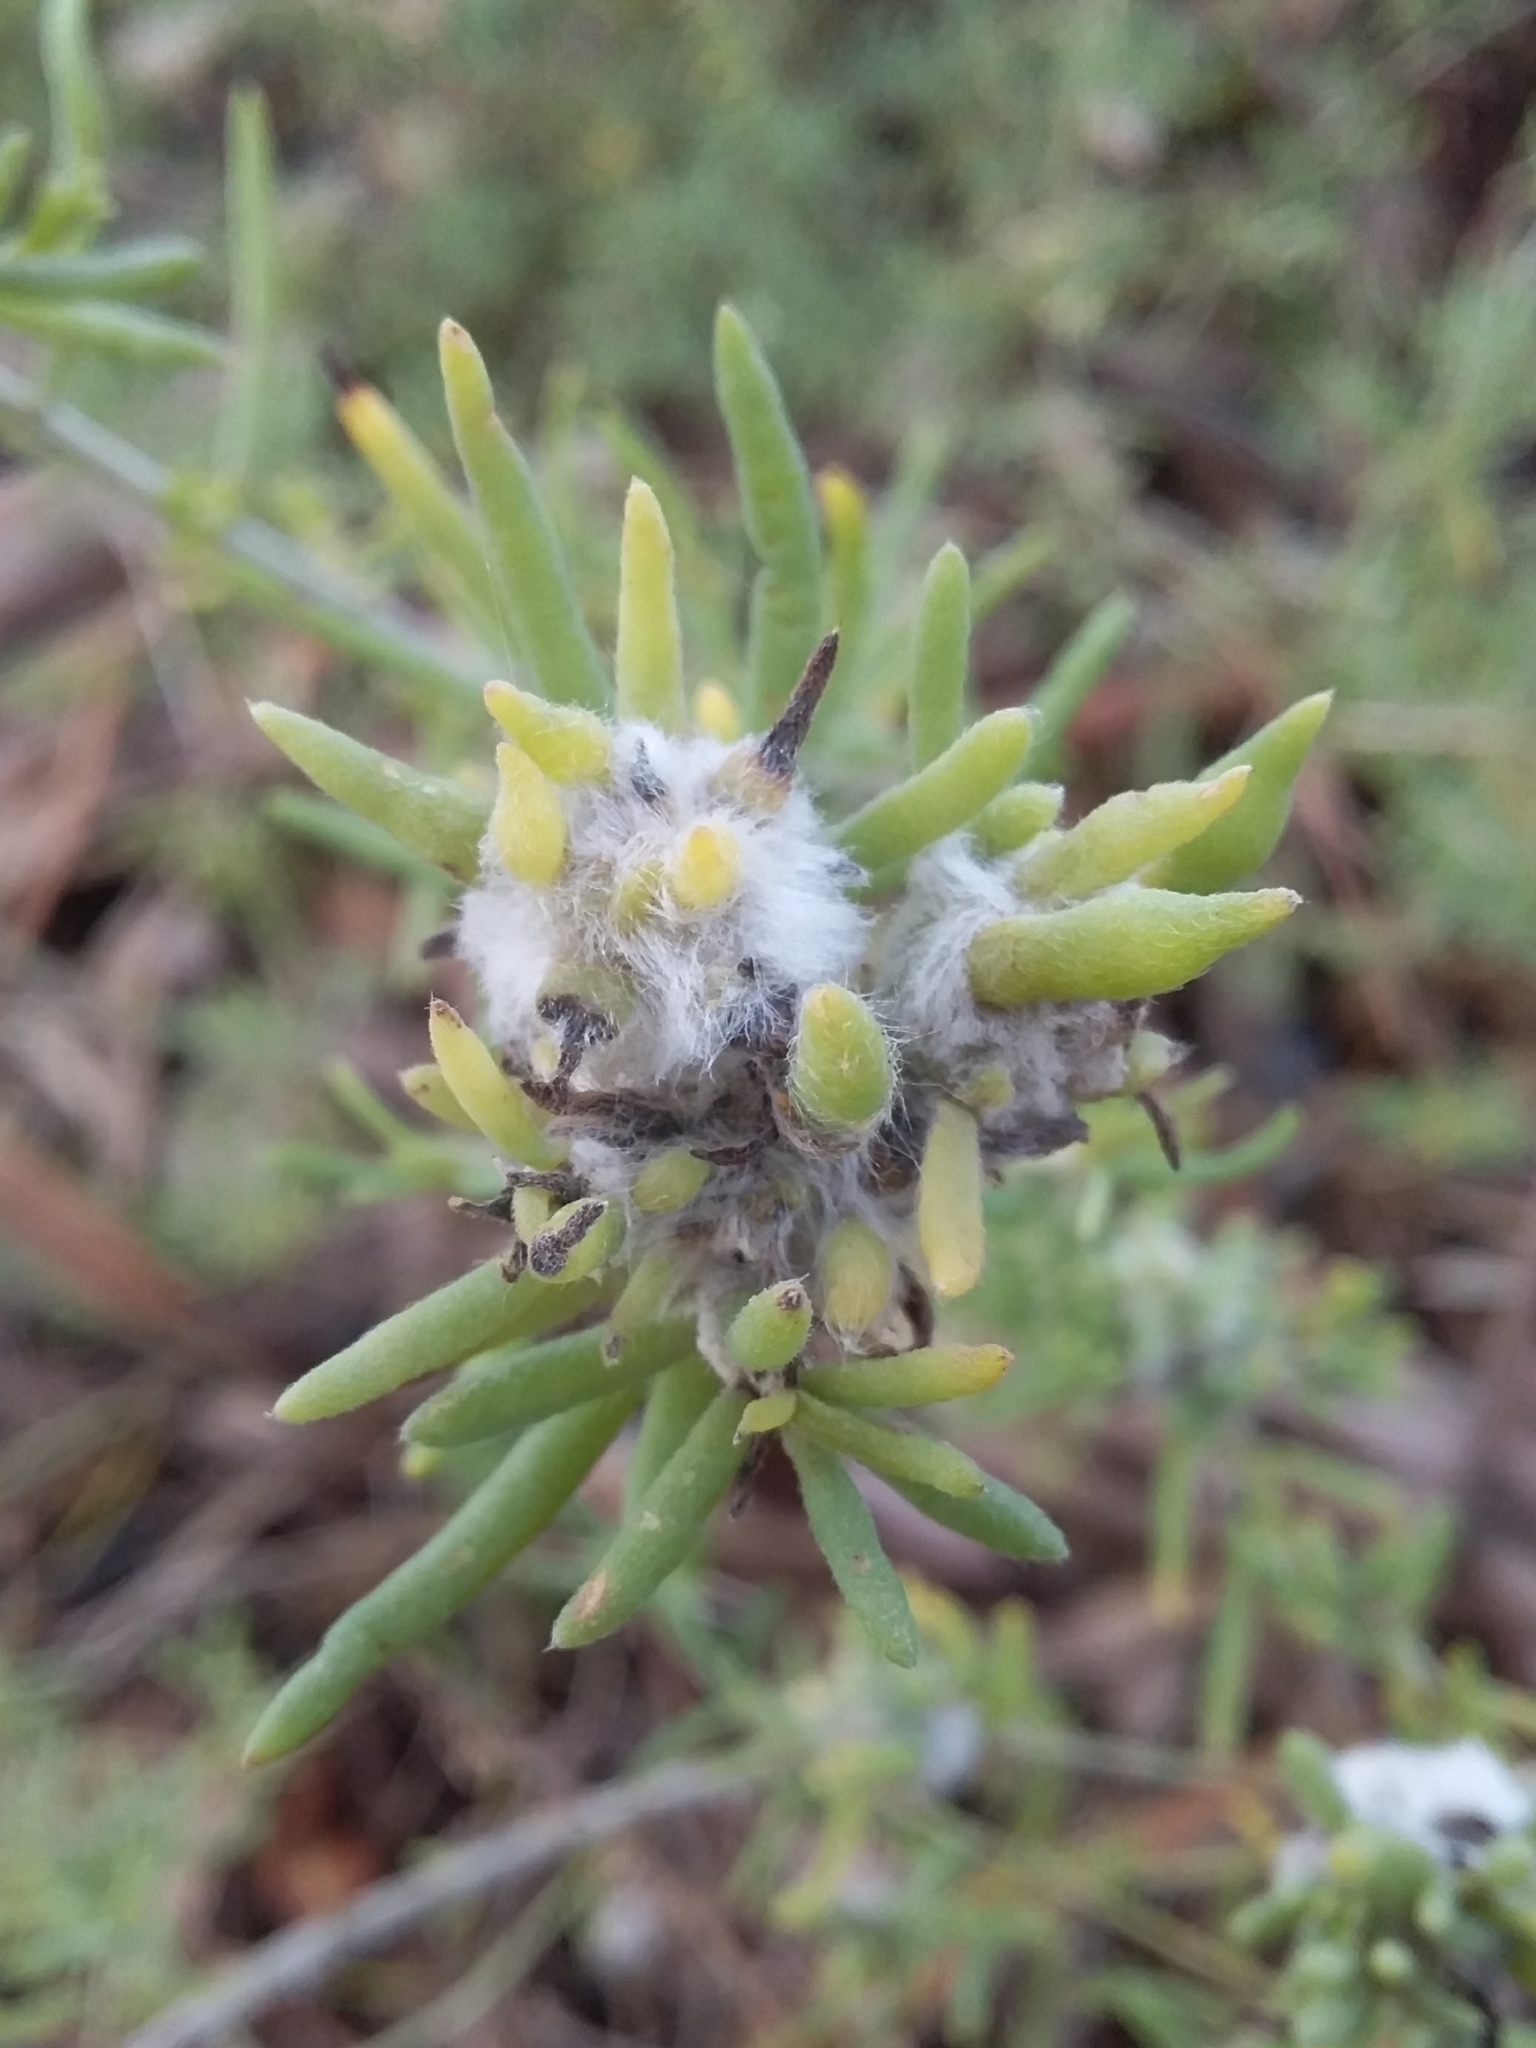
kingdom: Animalia
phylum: Arthropoda
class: Insecta
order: Diptera
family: Cecidomyiidae
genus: Asphondylia
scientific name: Asphondylia tonsura
